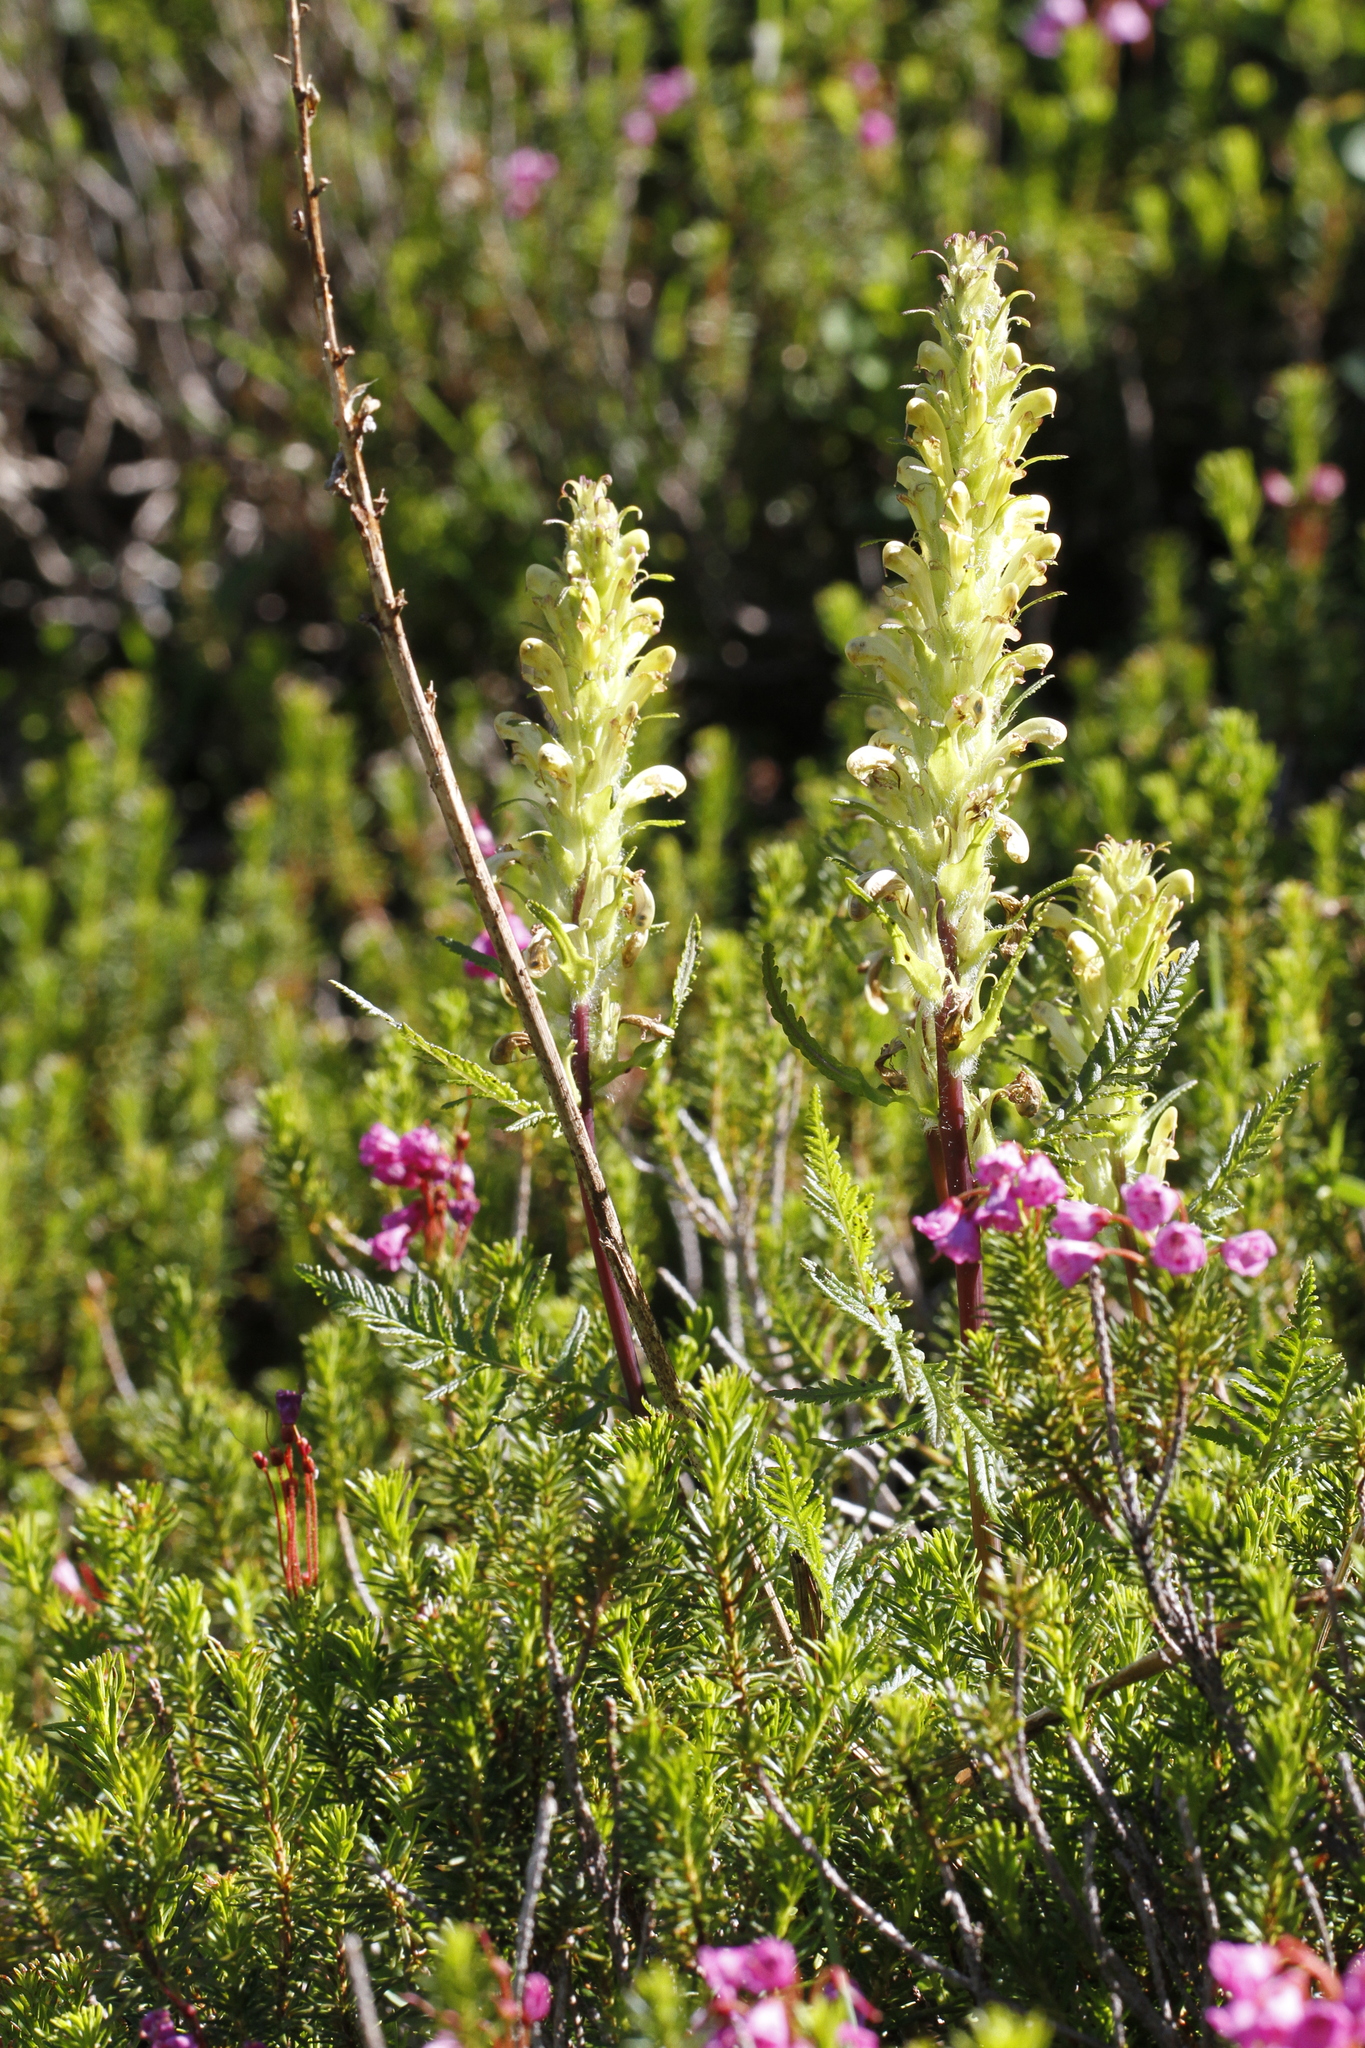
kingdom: Plantae
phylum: Tracheophyta
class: Magnoliopsida
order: Lamiales
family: Orobanchaceae
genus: Pedicularis
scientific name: Pedicularis bracteosa
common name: Bracted lousewort
